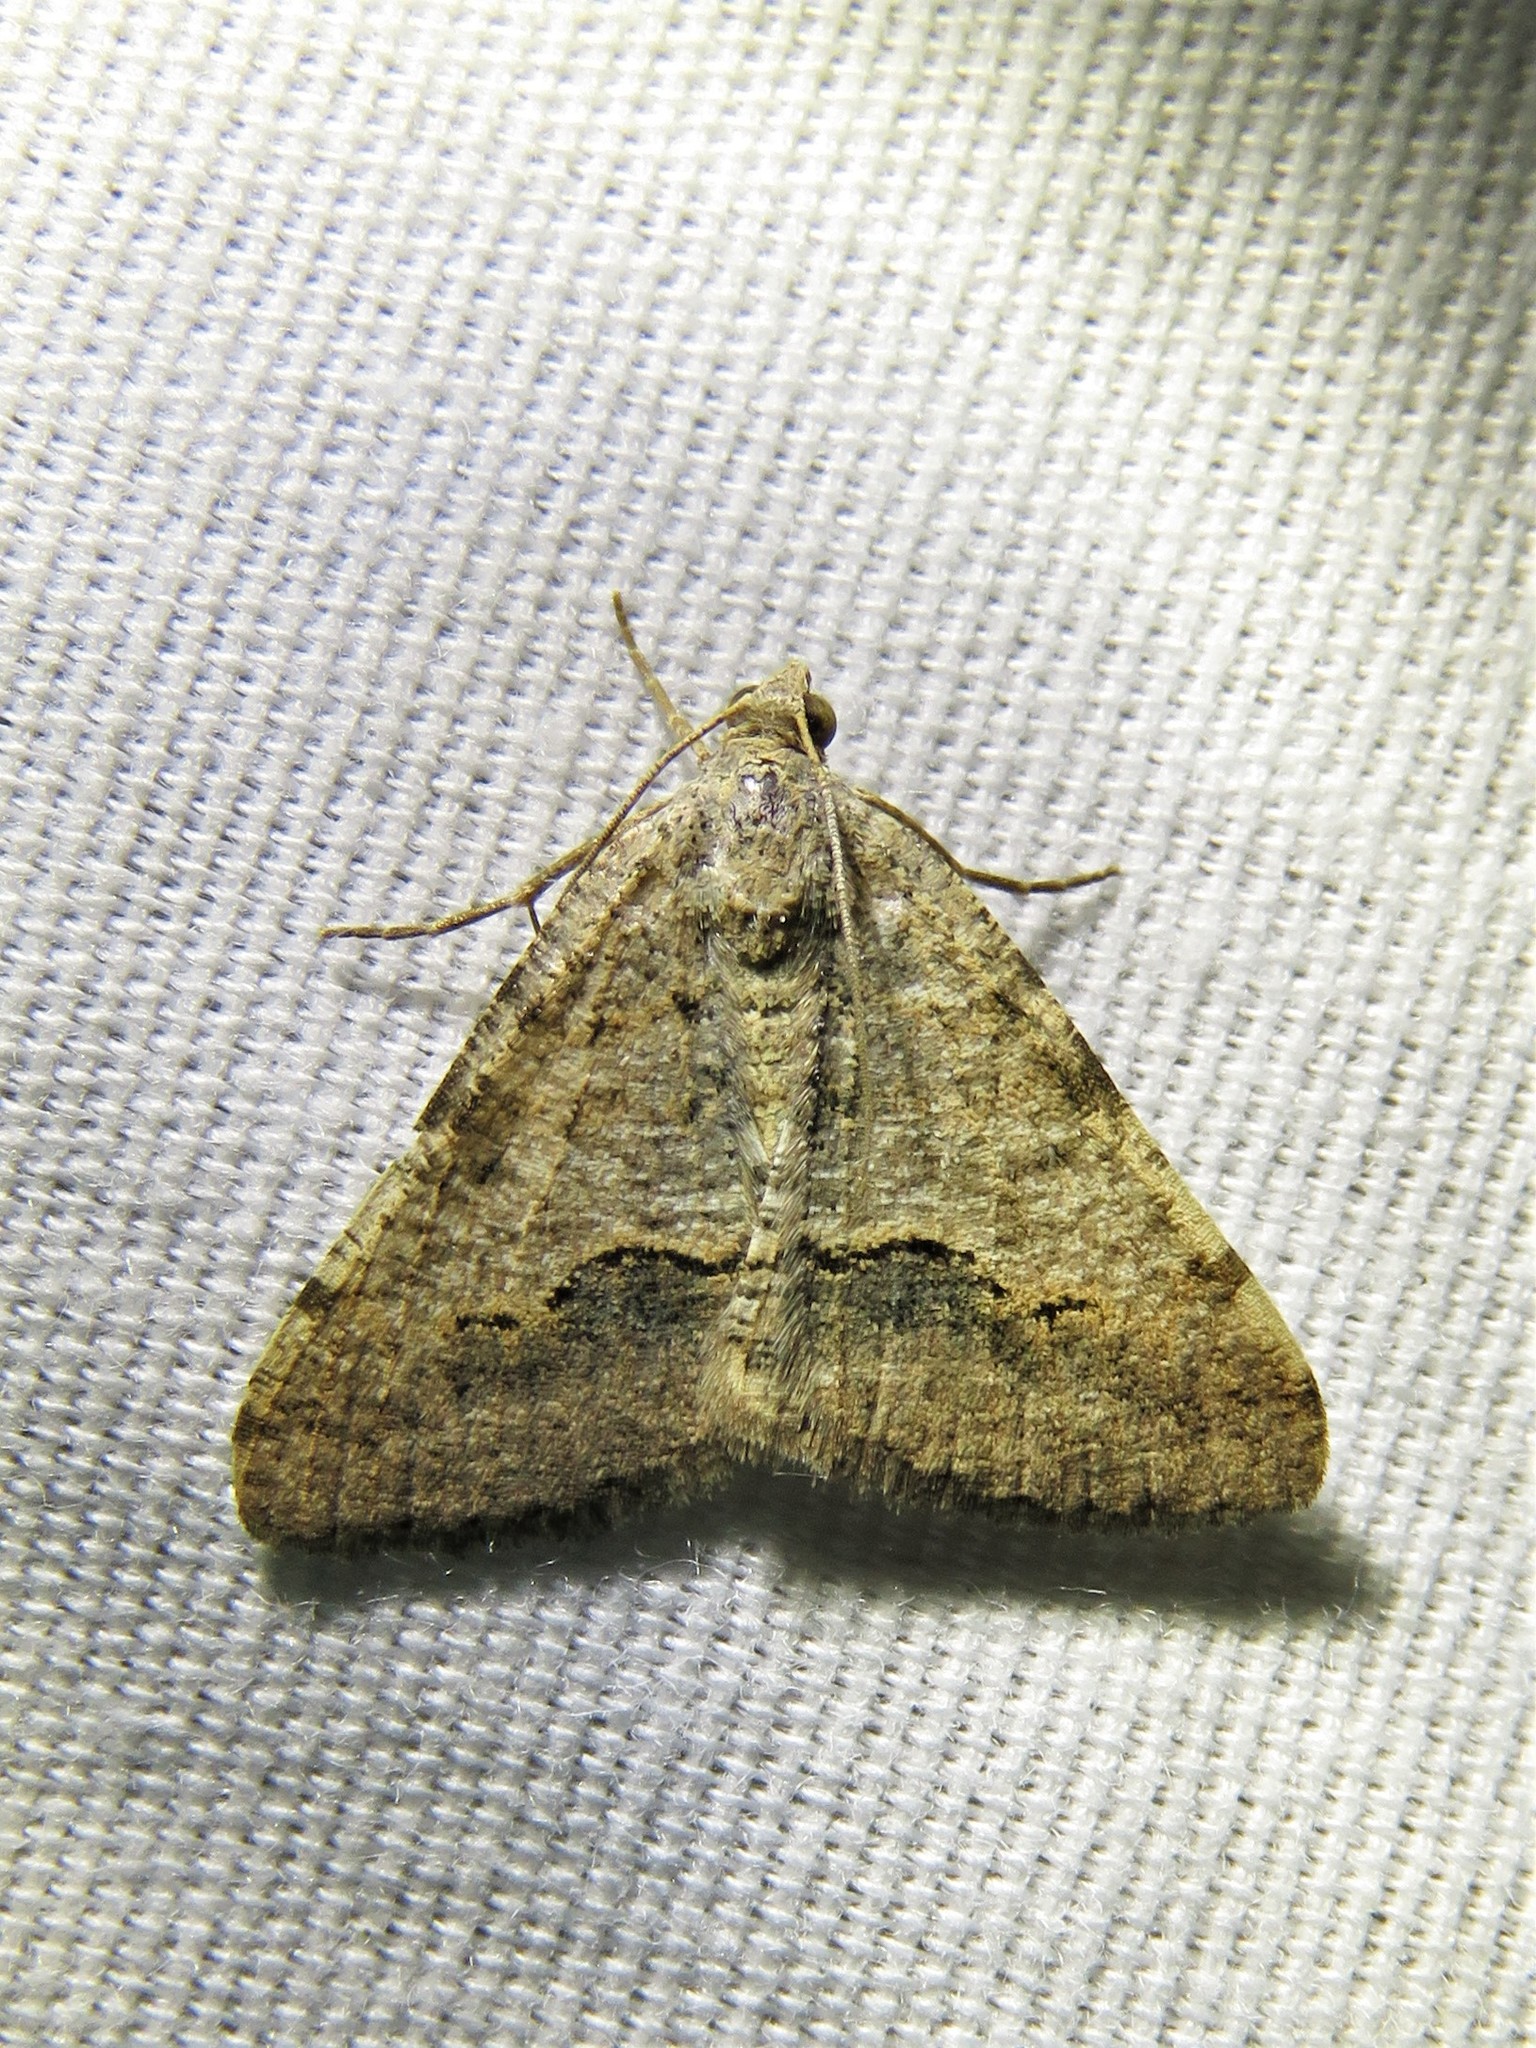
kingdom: Animalia
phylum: Arthropoda
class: Insecta
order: Lepidoptera
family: Geometridae
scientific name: Geometridae
